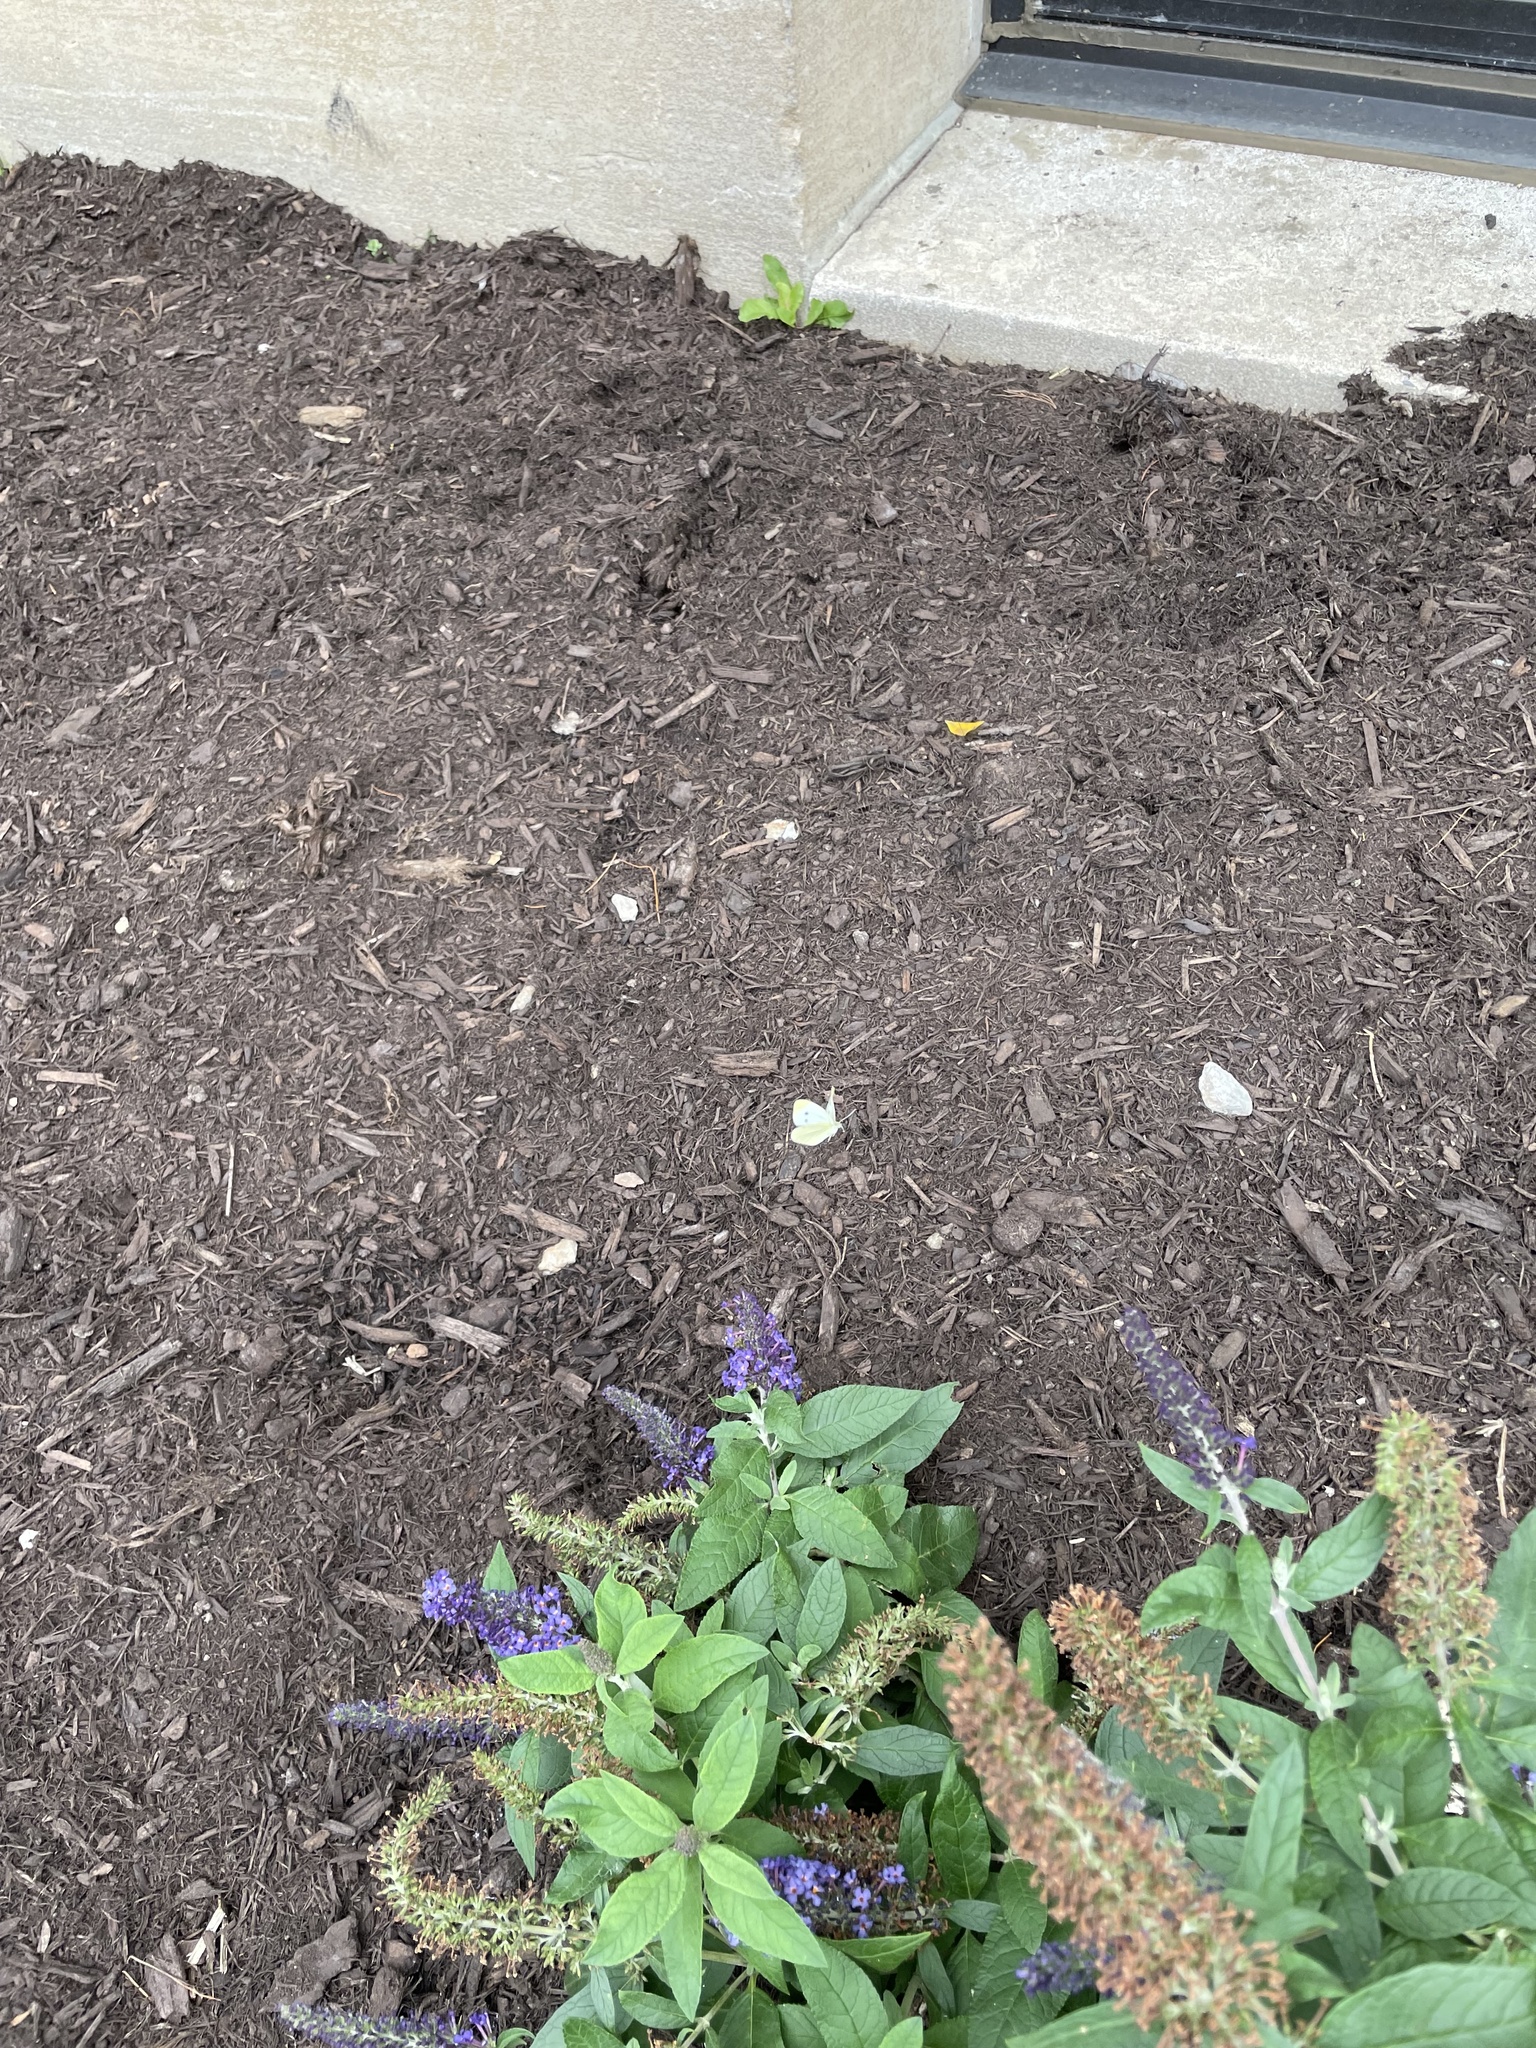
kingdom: Animalia
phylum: Arthropoda
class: Insecta
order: Lepidoptera
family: Pieridae
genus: Pieris
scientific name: Pieris rapae
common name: Small white
